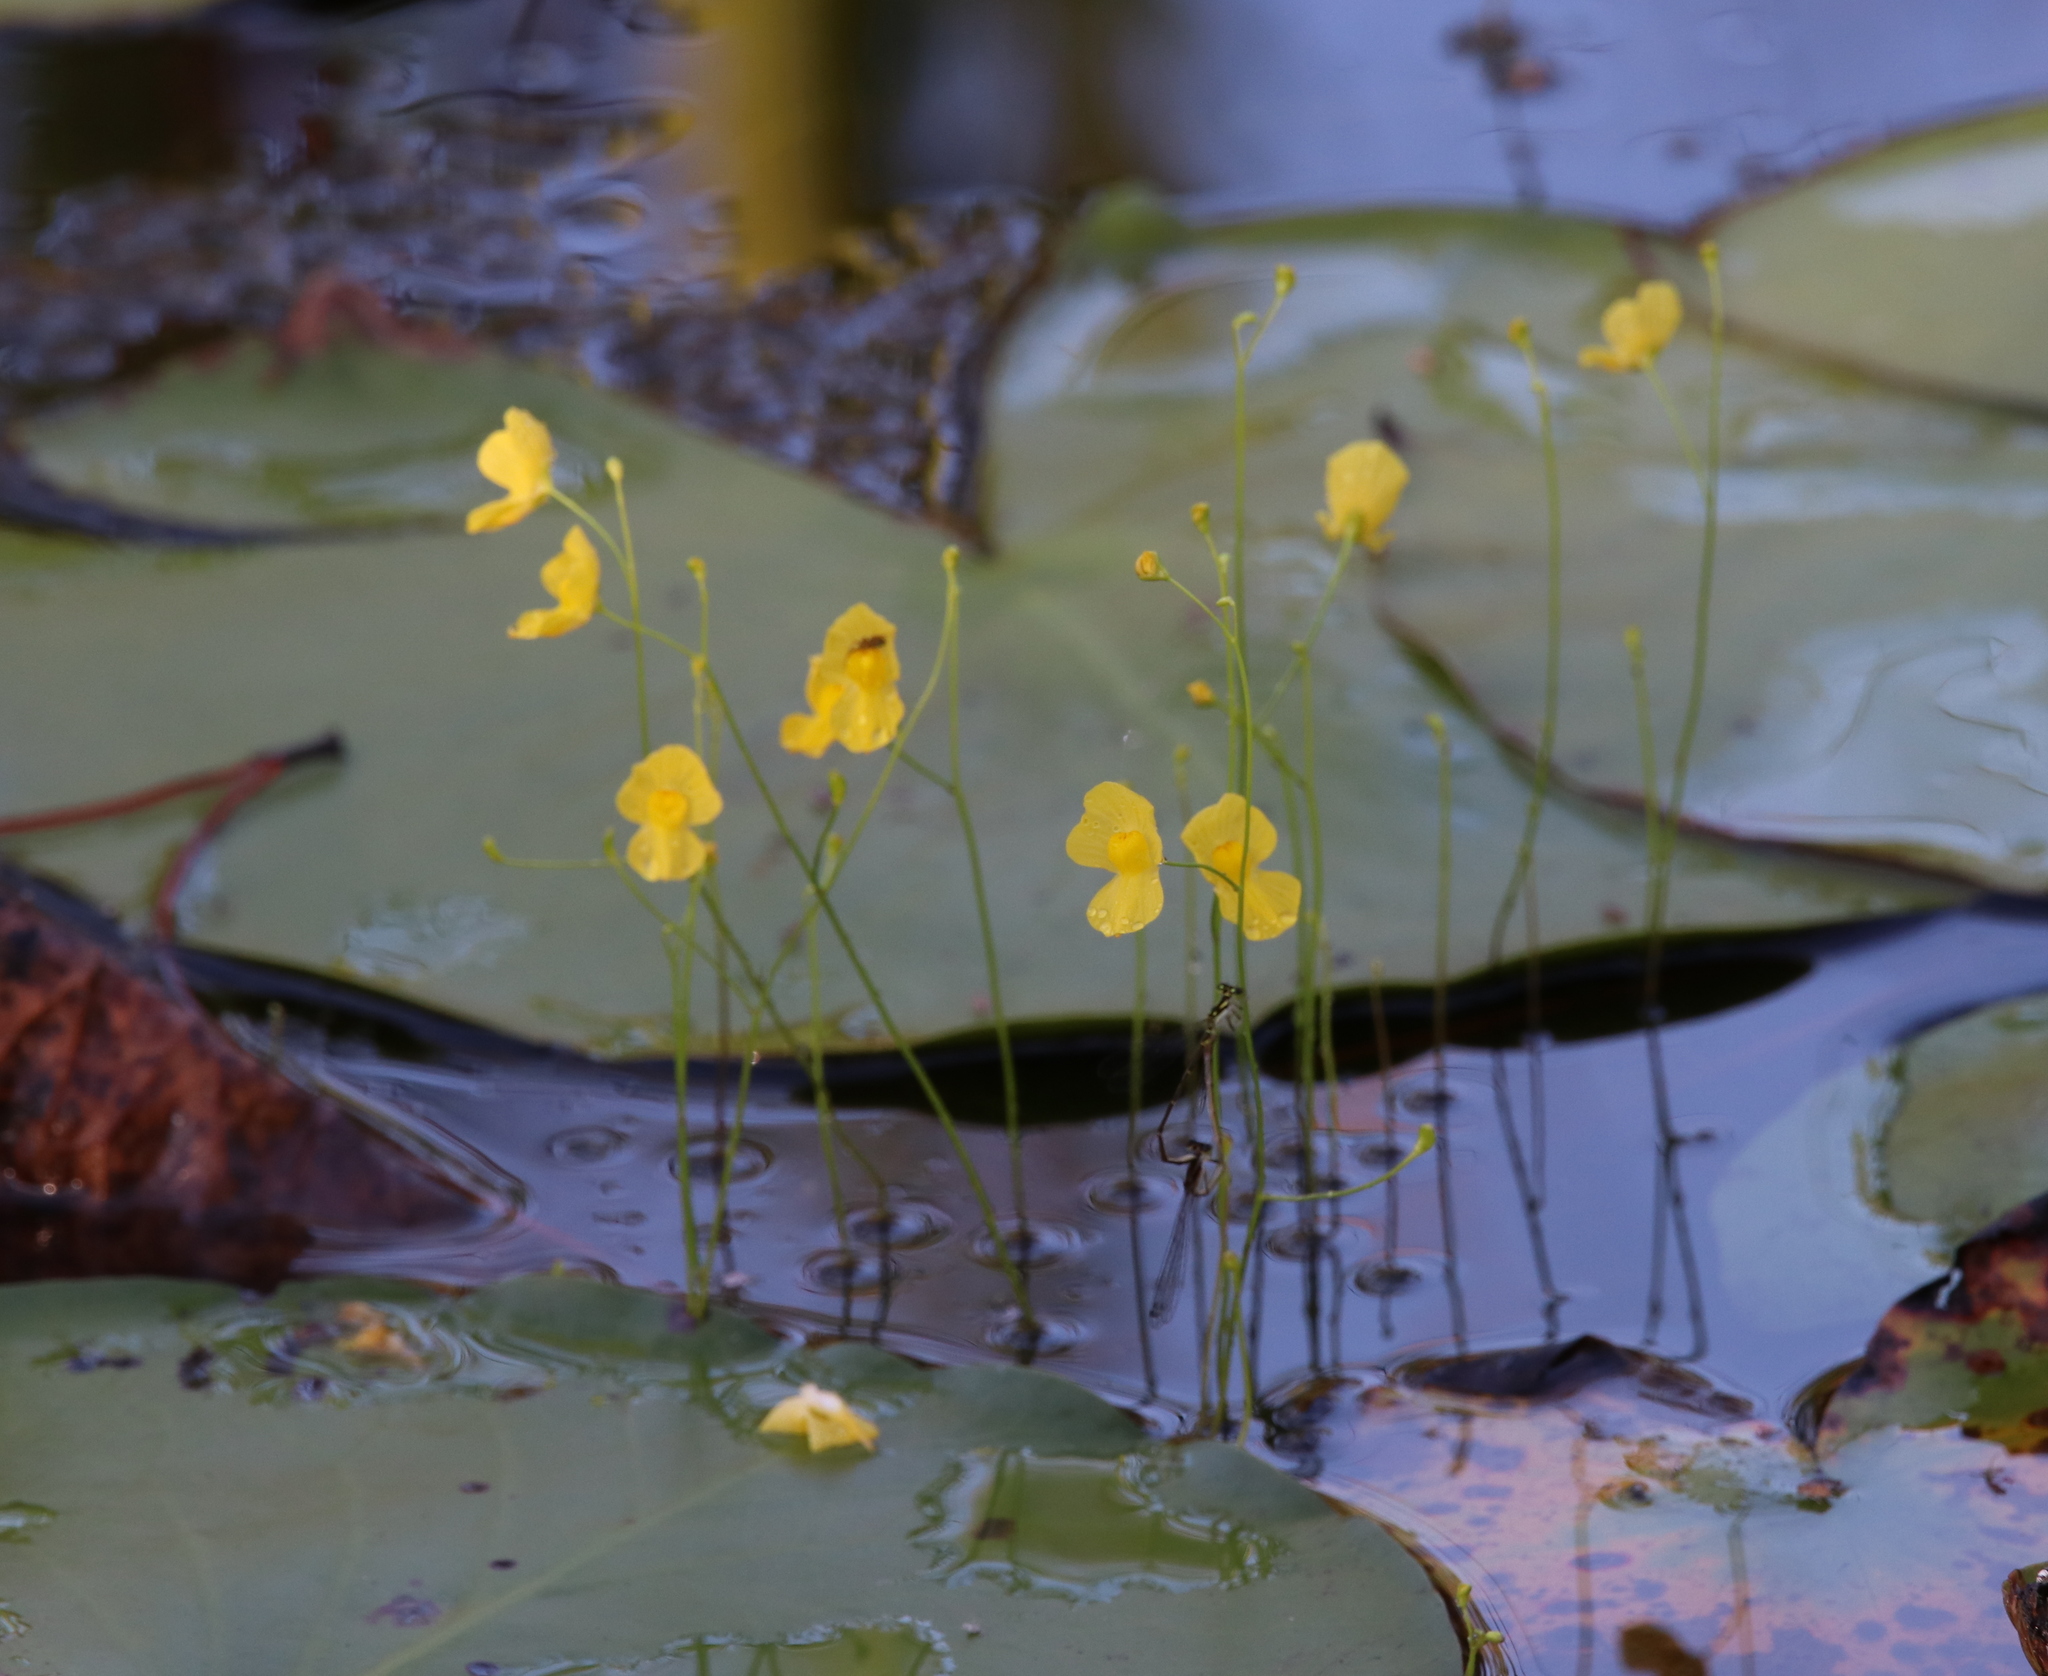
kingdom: Plantae
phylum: Tracheophyta
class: Magnoliopsida
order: Lamiales
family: Lentibulariaceae
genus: Utricularia
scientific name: Utricularia gibba
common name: Humped bladderwort
